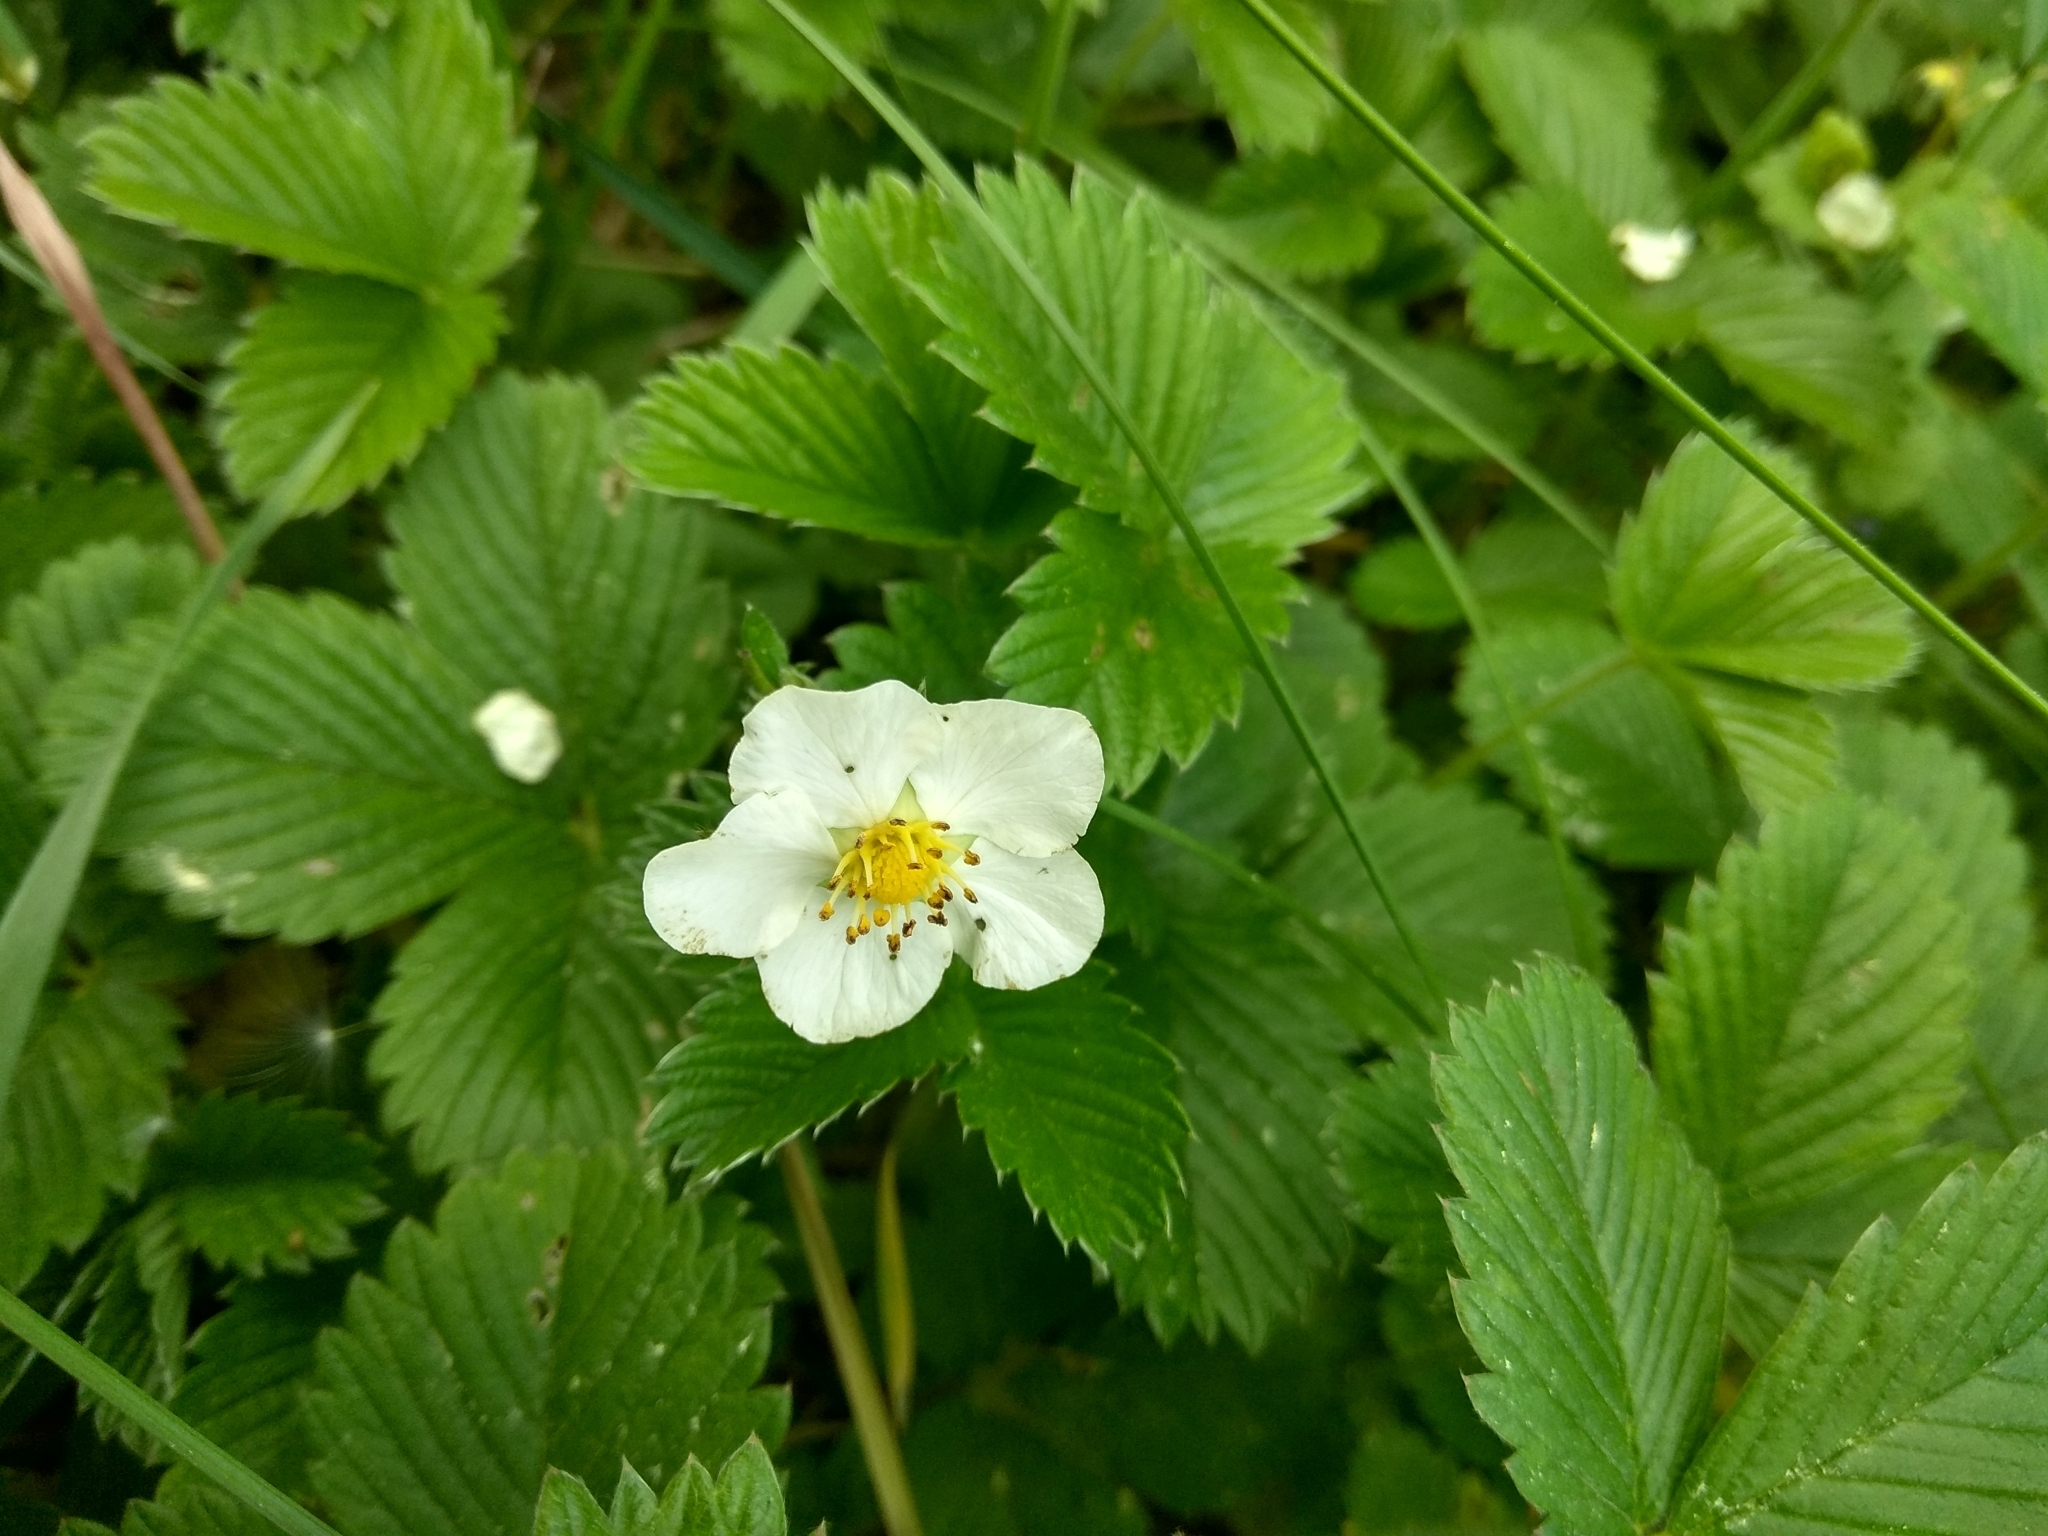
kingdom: Plantae
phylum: Tracheophyta
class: Magnoliopsida
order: Rosales
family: Rosaceae
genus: Fragaria
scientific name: Fragaria viridis
